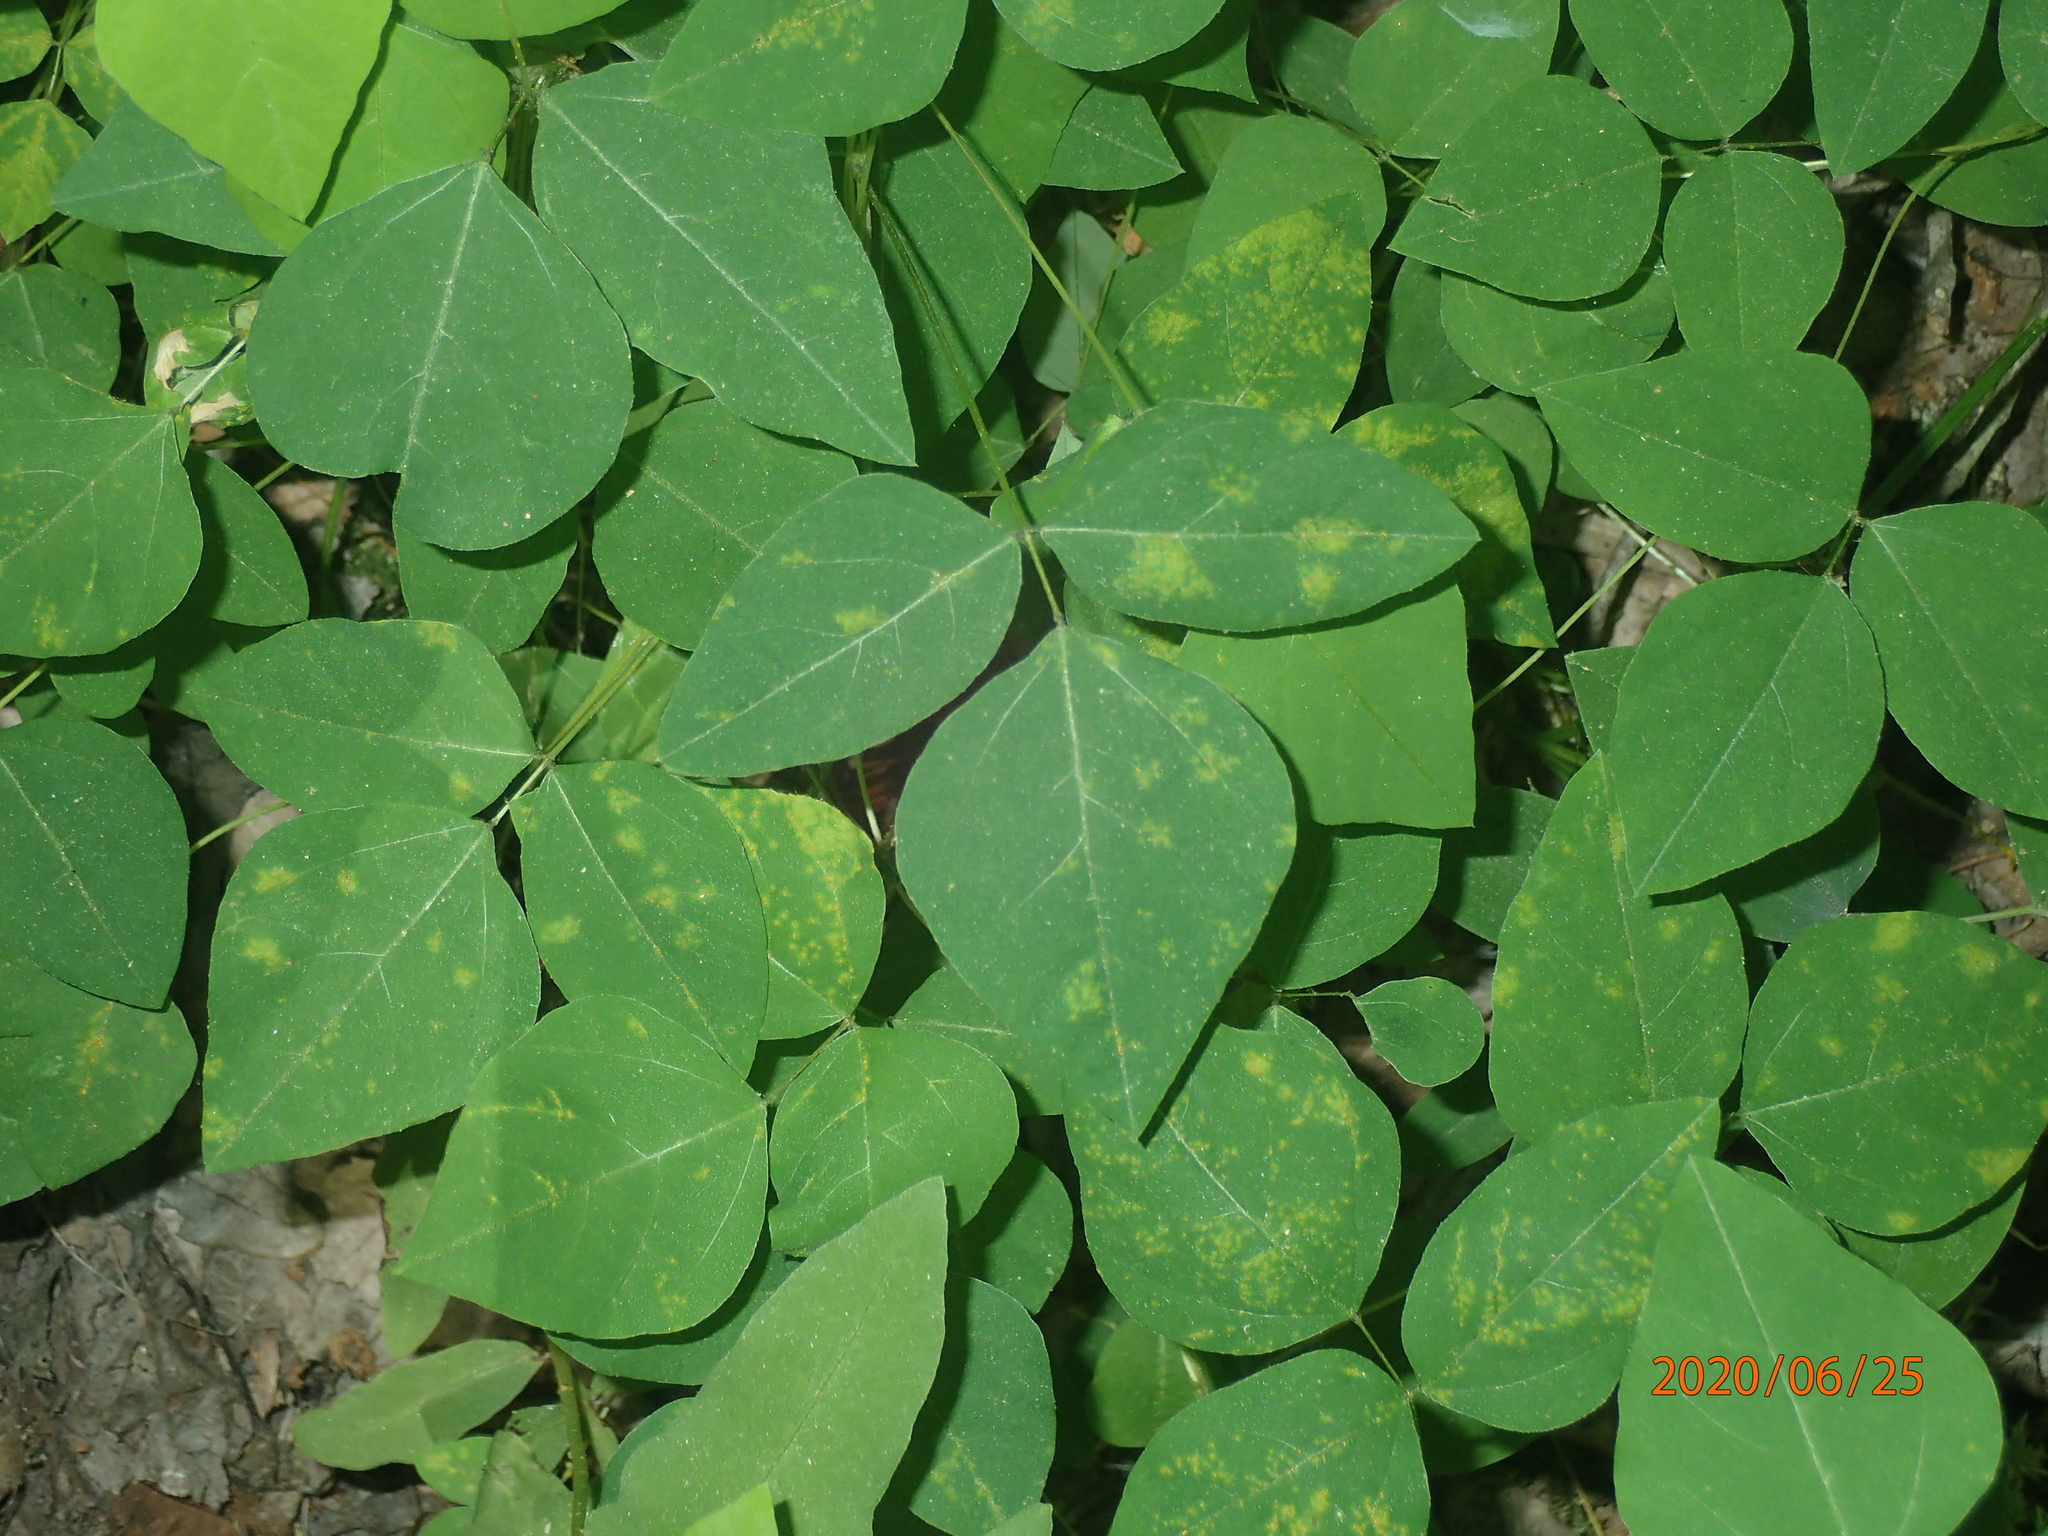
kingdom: Plantae
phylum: Tracheophyta
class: Magnoliopsida
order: Fabales
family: Fabaceae
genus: Amphicarpaea
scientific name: Amphicarpaea bracteata
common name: American hog peanut
